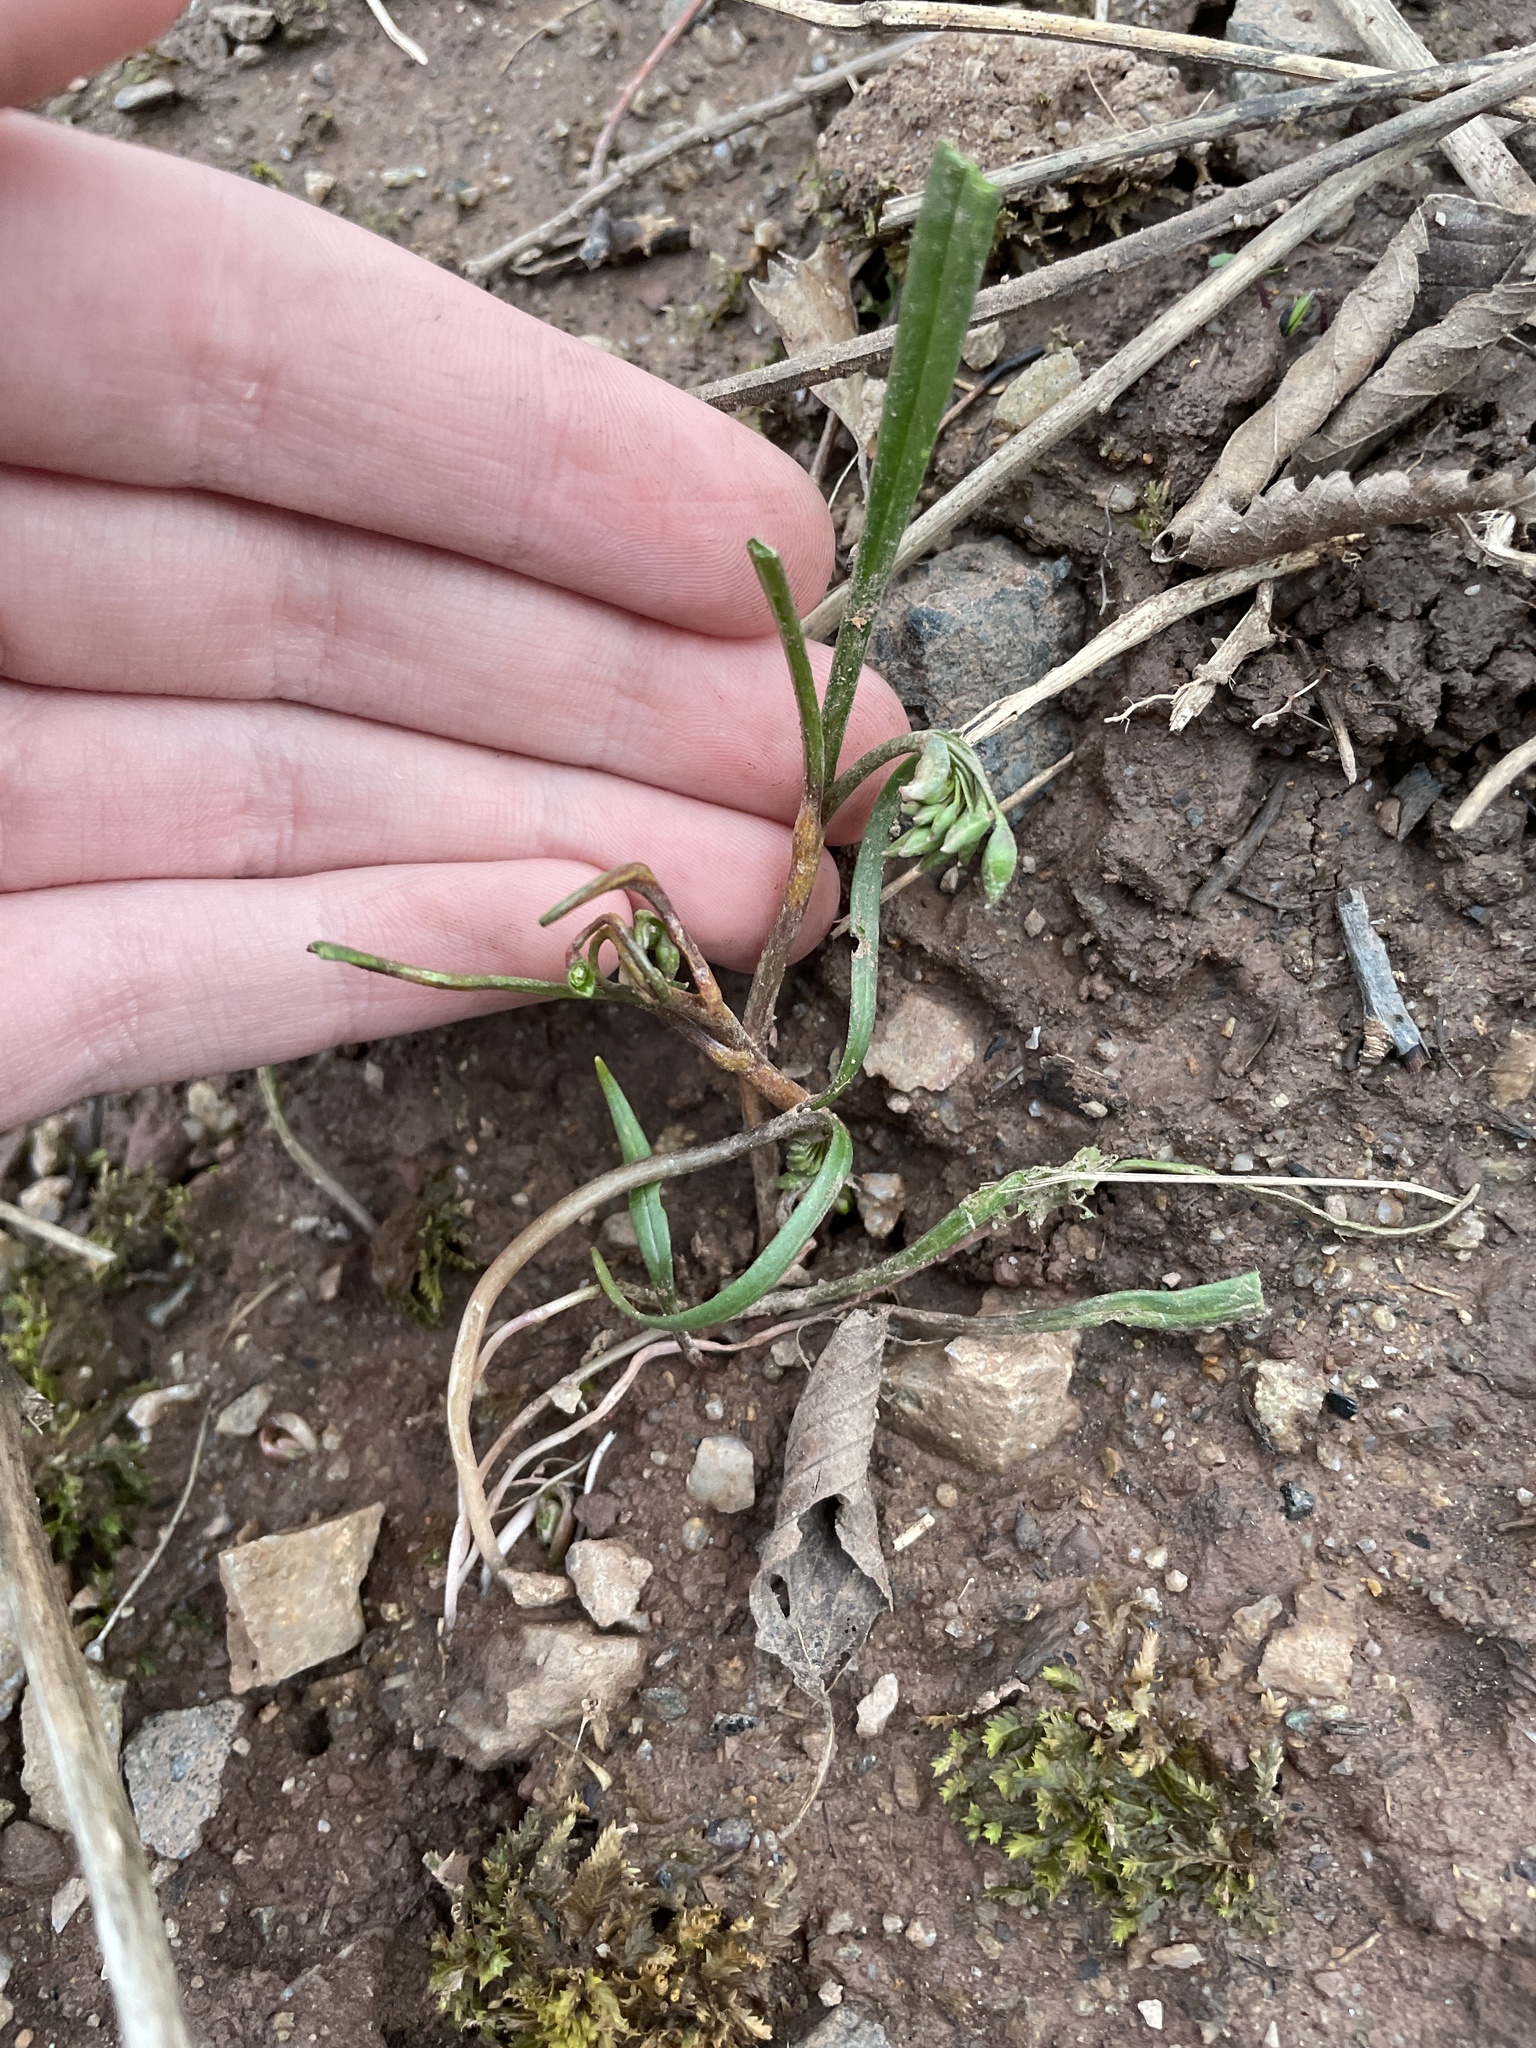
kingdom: Plantae
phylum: Tracheophyta
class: Magnoliopsida
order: Caryophyllales
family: Montiaceae
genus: Claytonia
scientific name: Claytonia virginica
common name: Virginia springbeauty
